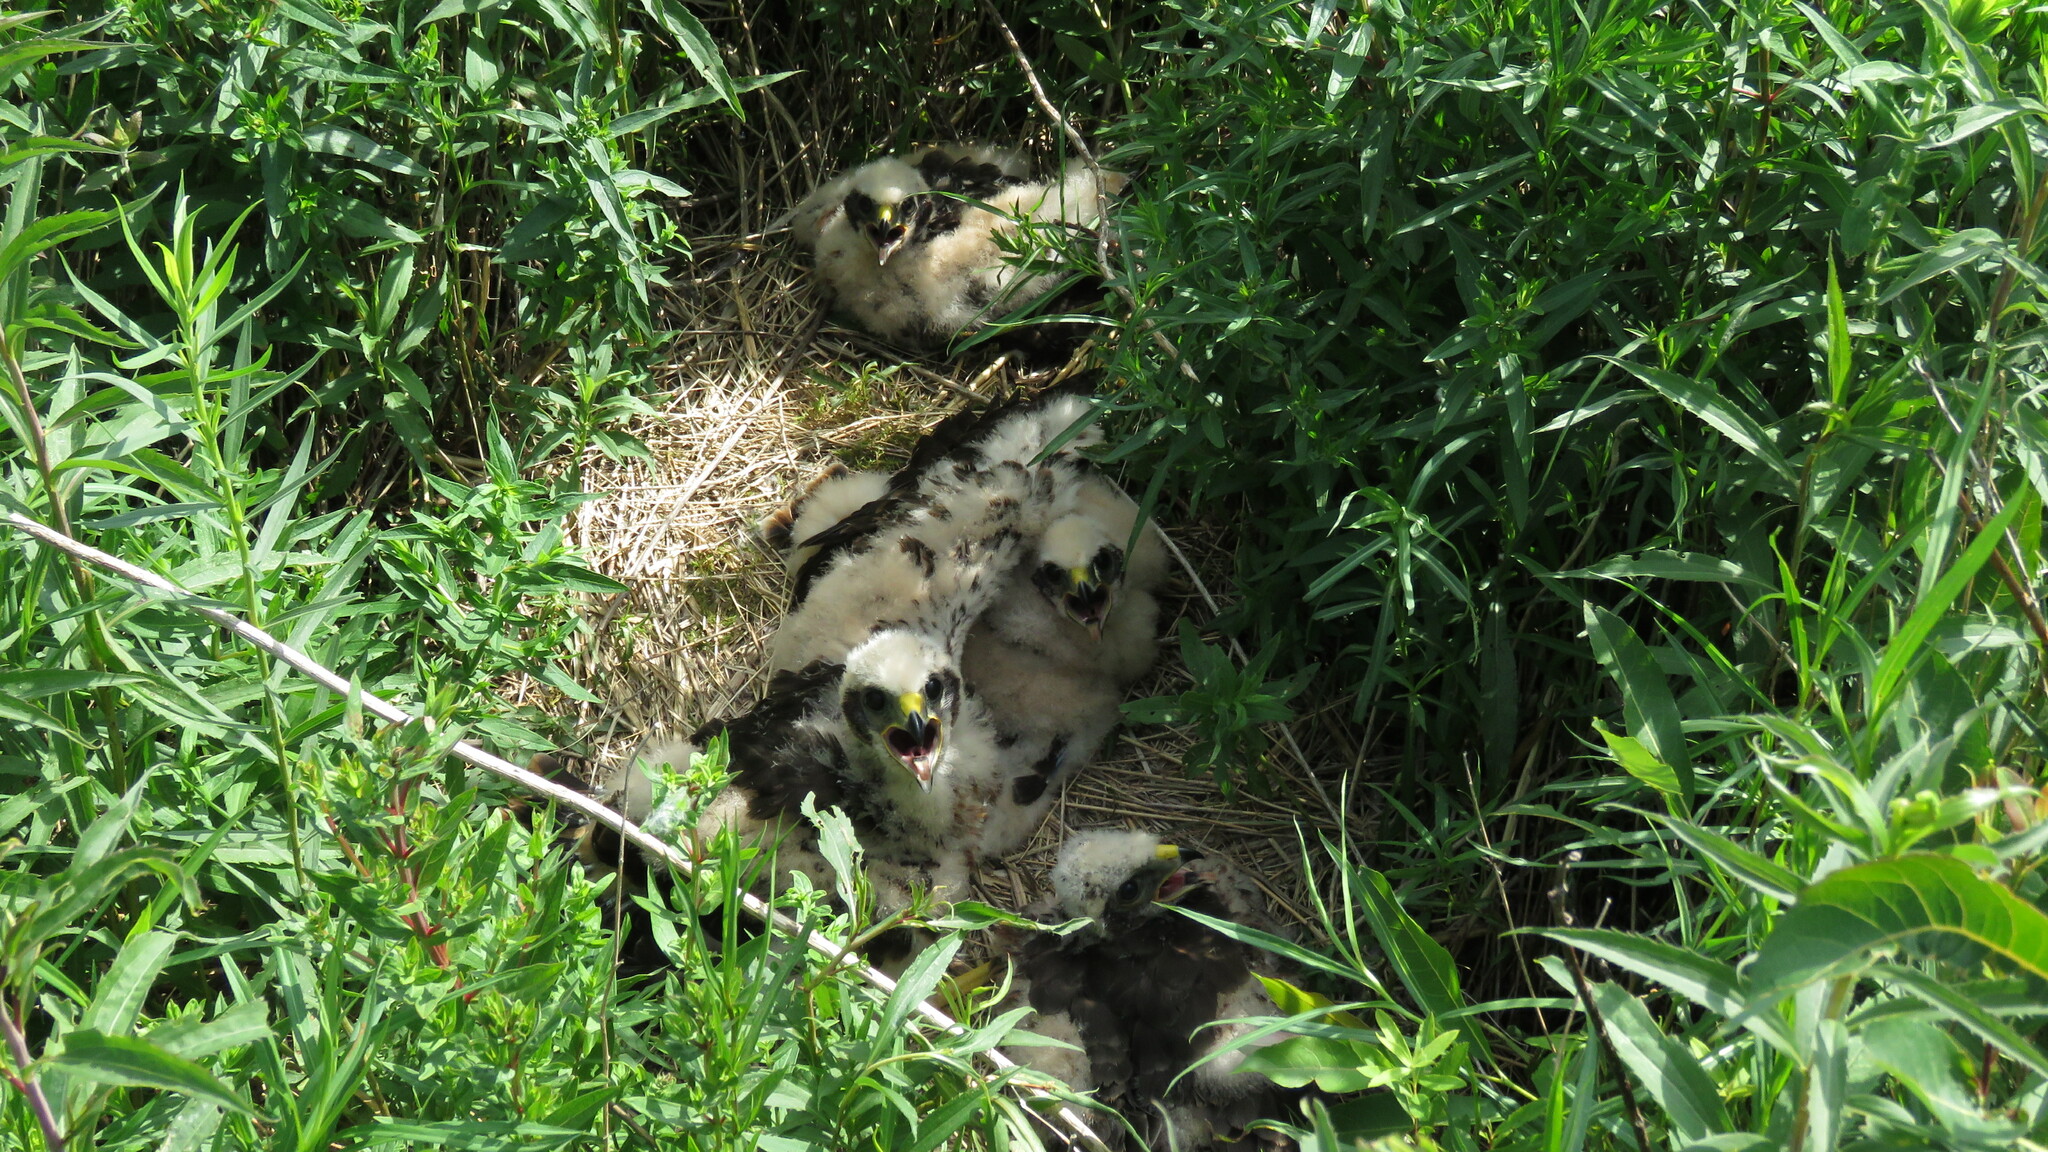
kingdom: Animalia
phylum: Chordata
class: Aves
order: Accipitriformes
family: Accipitridae
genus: Circus
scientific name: Circus cyaneus
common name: Hen harrier
